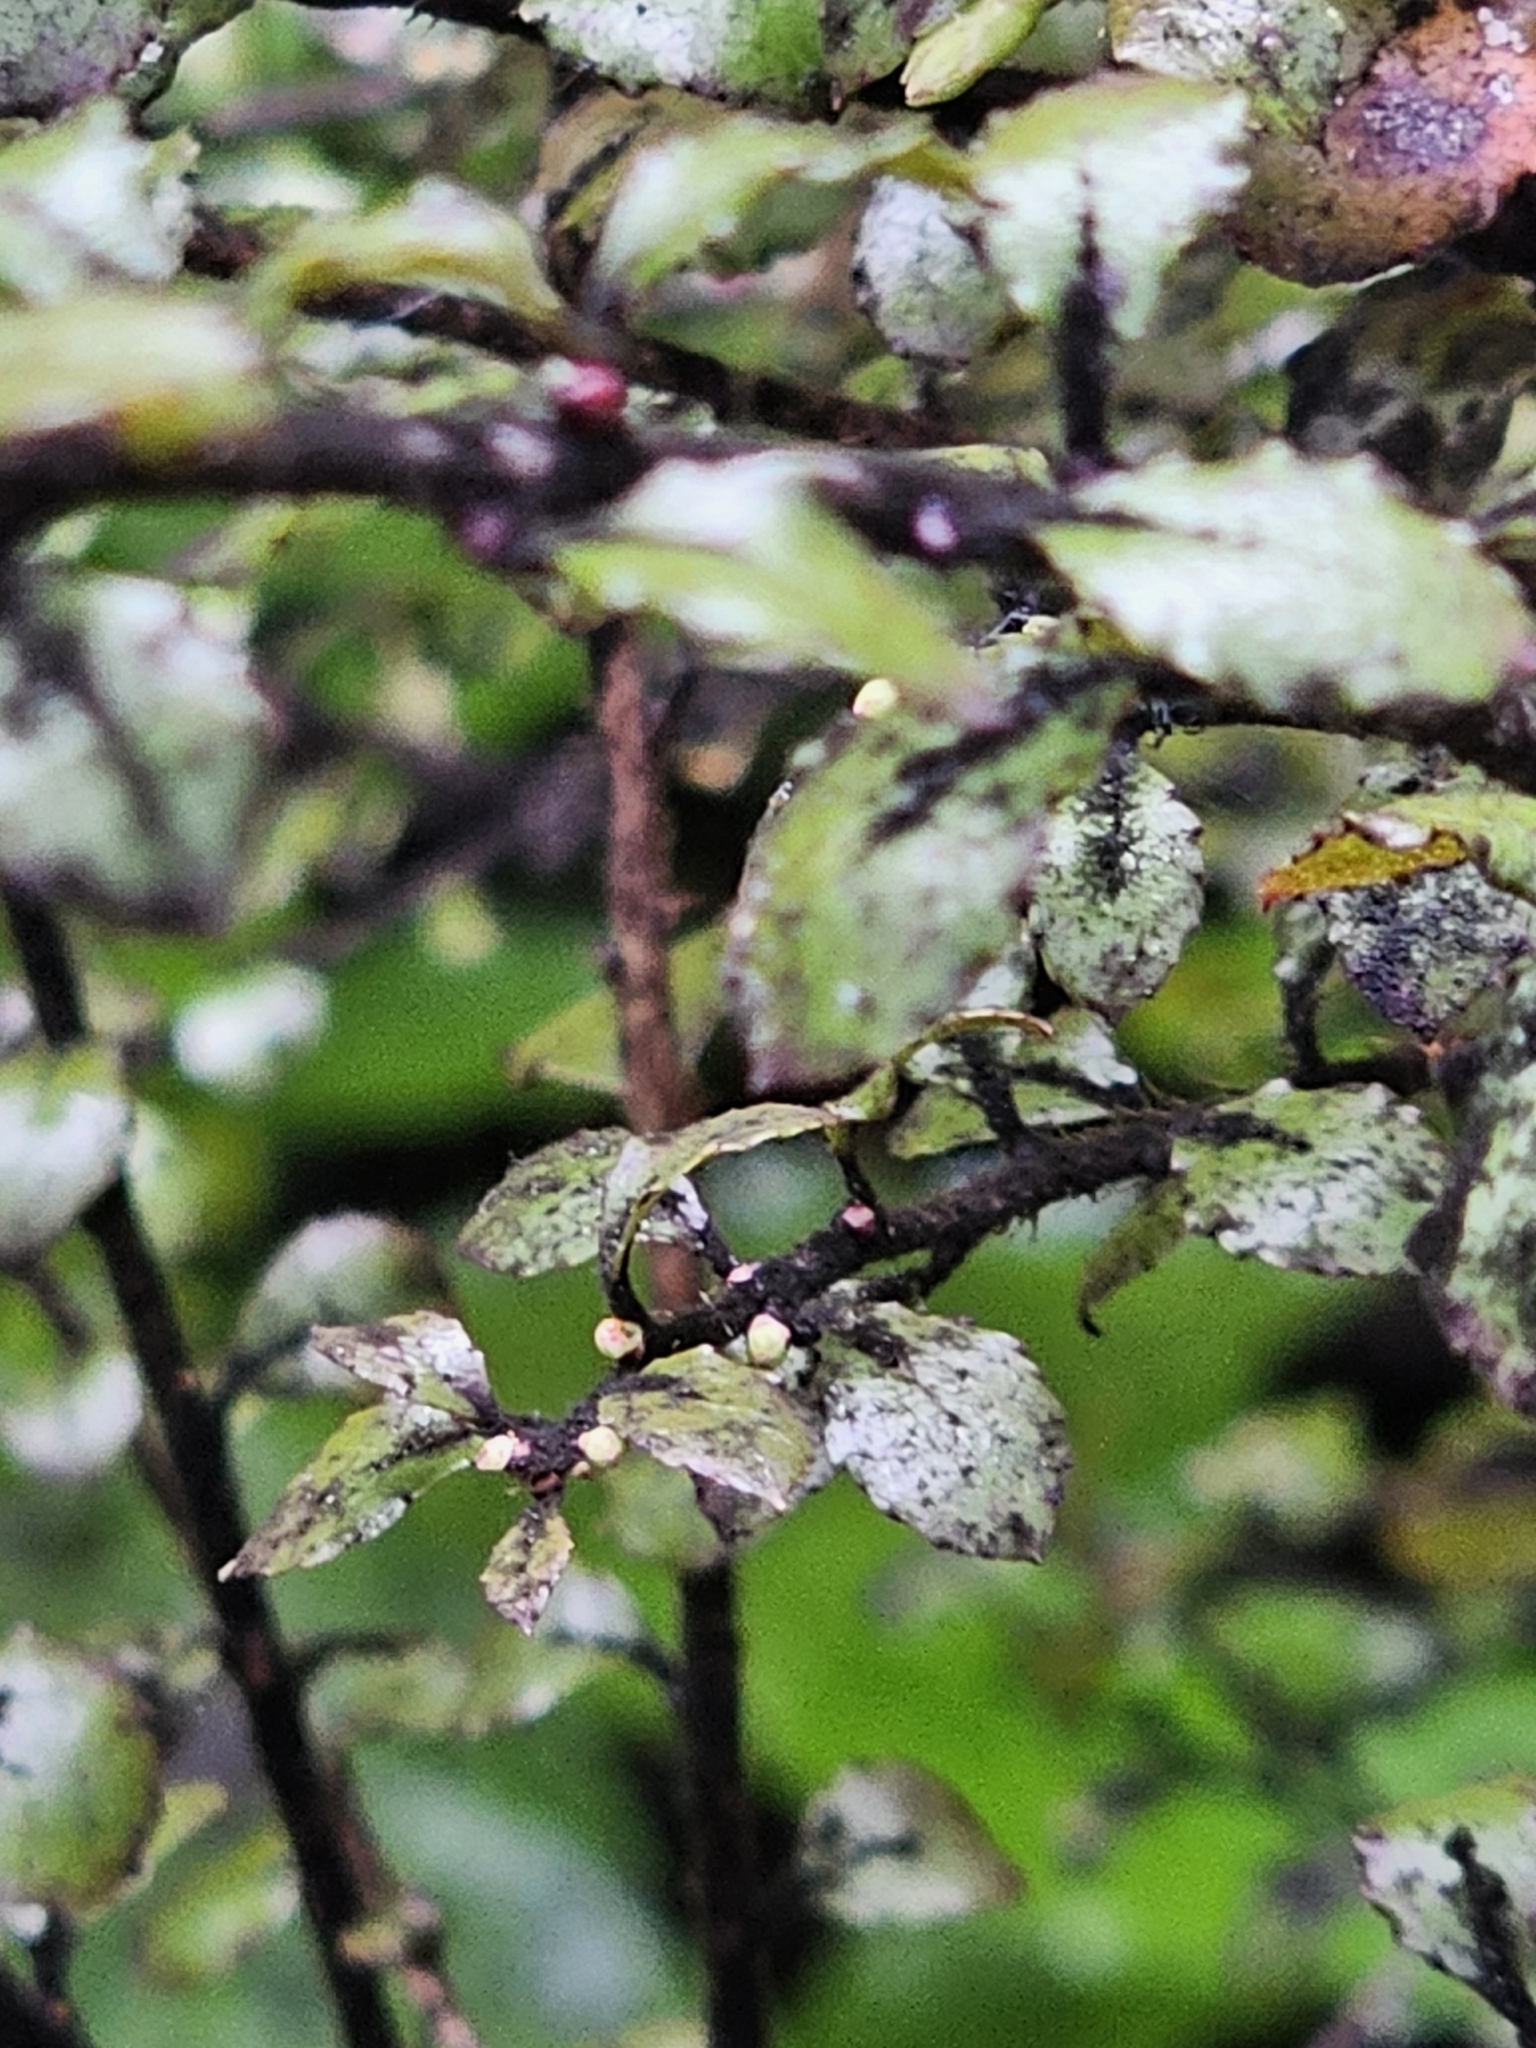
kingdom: Plantae
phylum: Tracheophyta
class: Magnoliopsida
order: Ericales
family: Ericaceae
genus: Gaultheria
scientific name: Gaultheria antipoda
